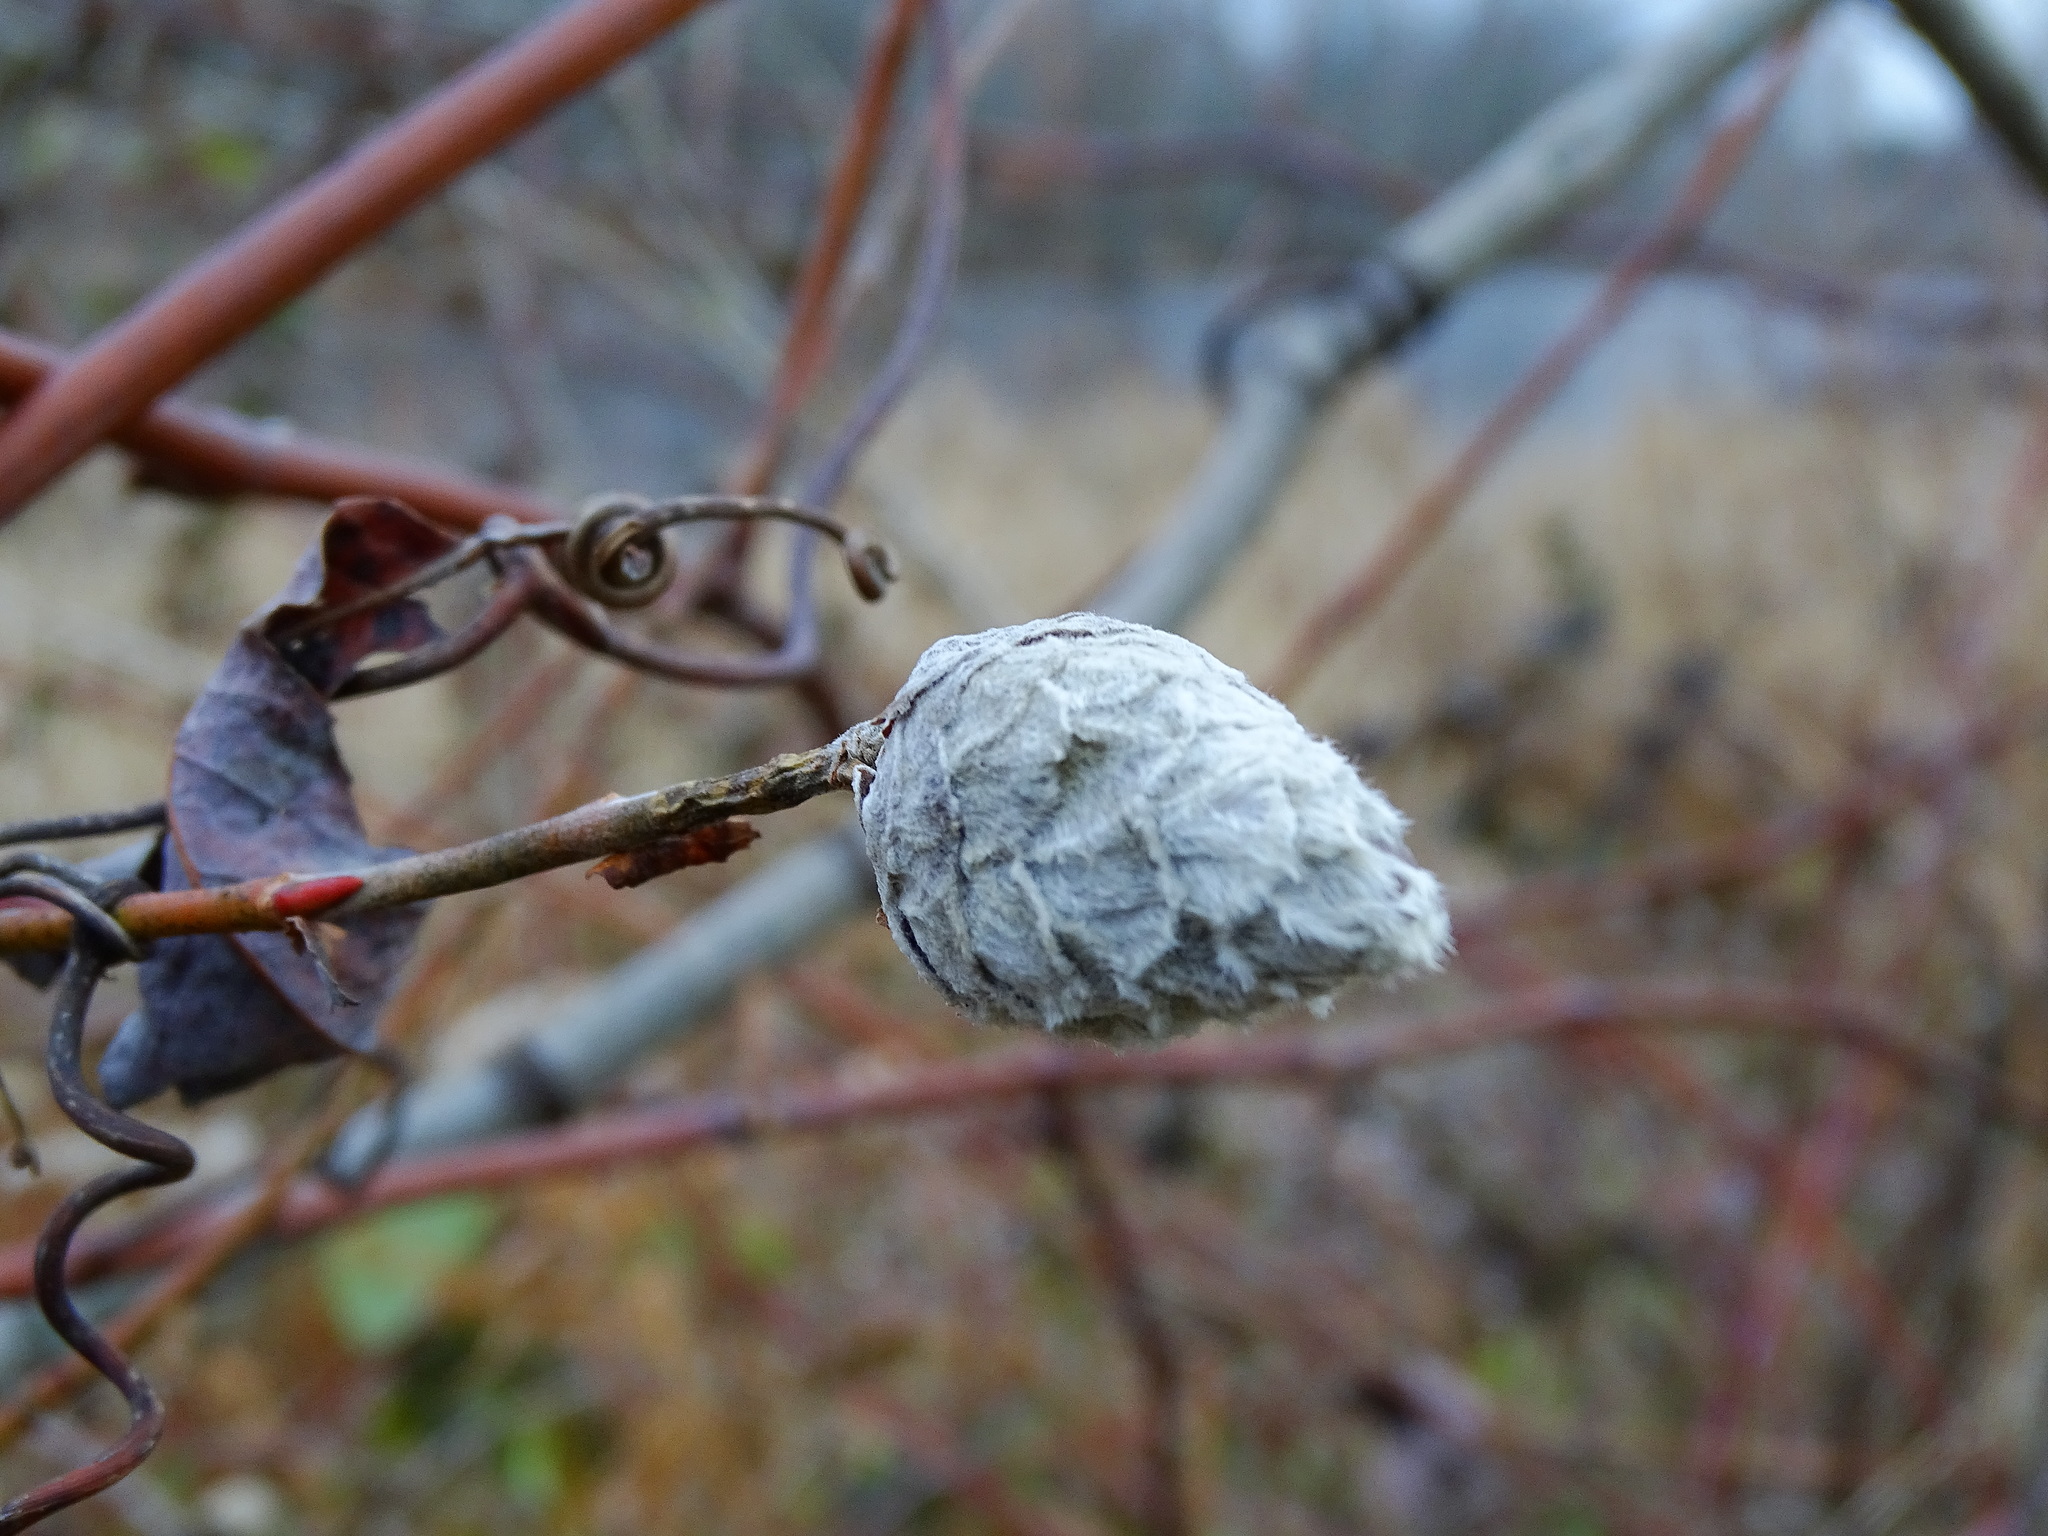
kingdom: Animalia
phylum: Arthropoda
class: Insecta
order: Diptera
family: Cecidomyiidae
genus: Rabdophaga
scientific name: Rabdophaga strobiloides
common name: Willow pinecone gall midge
